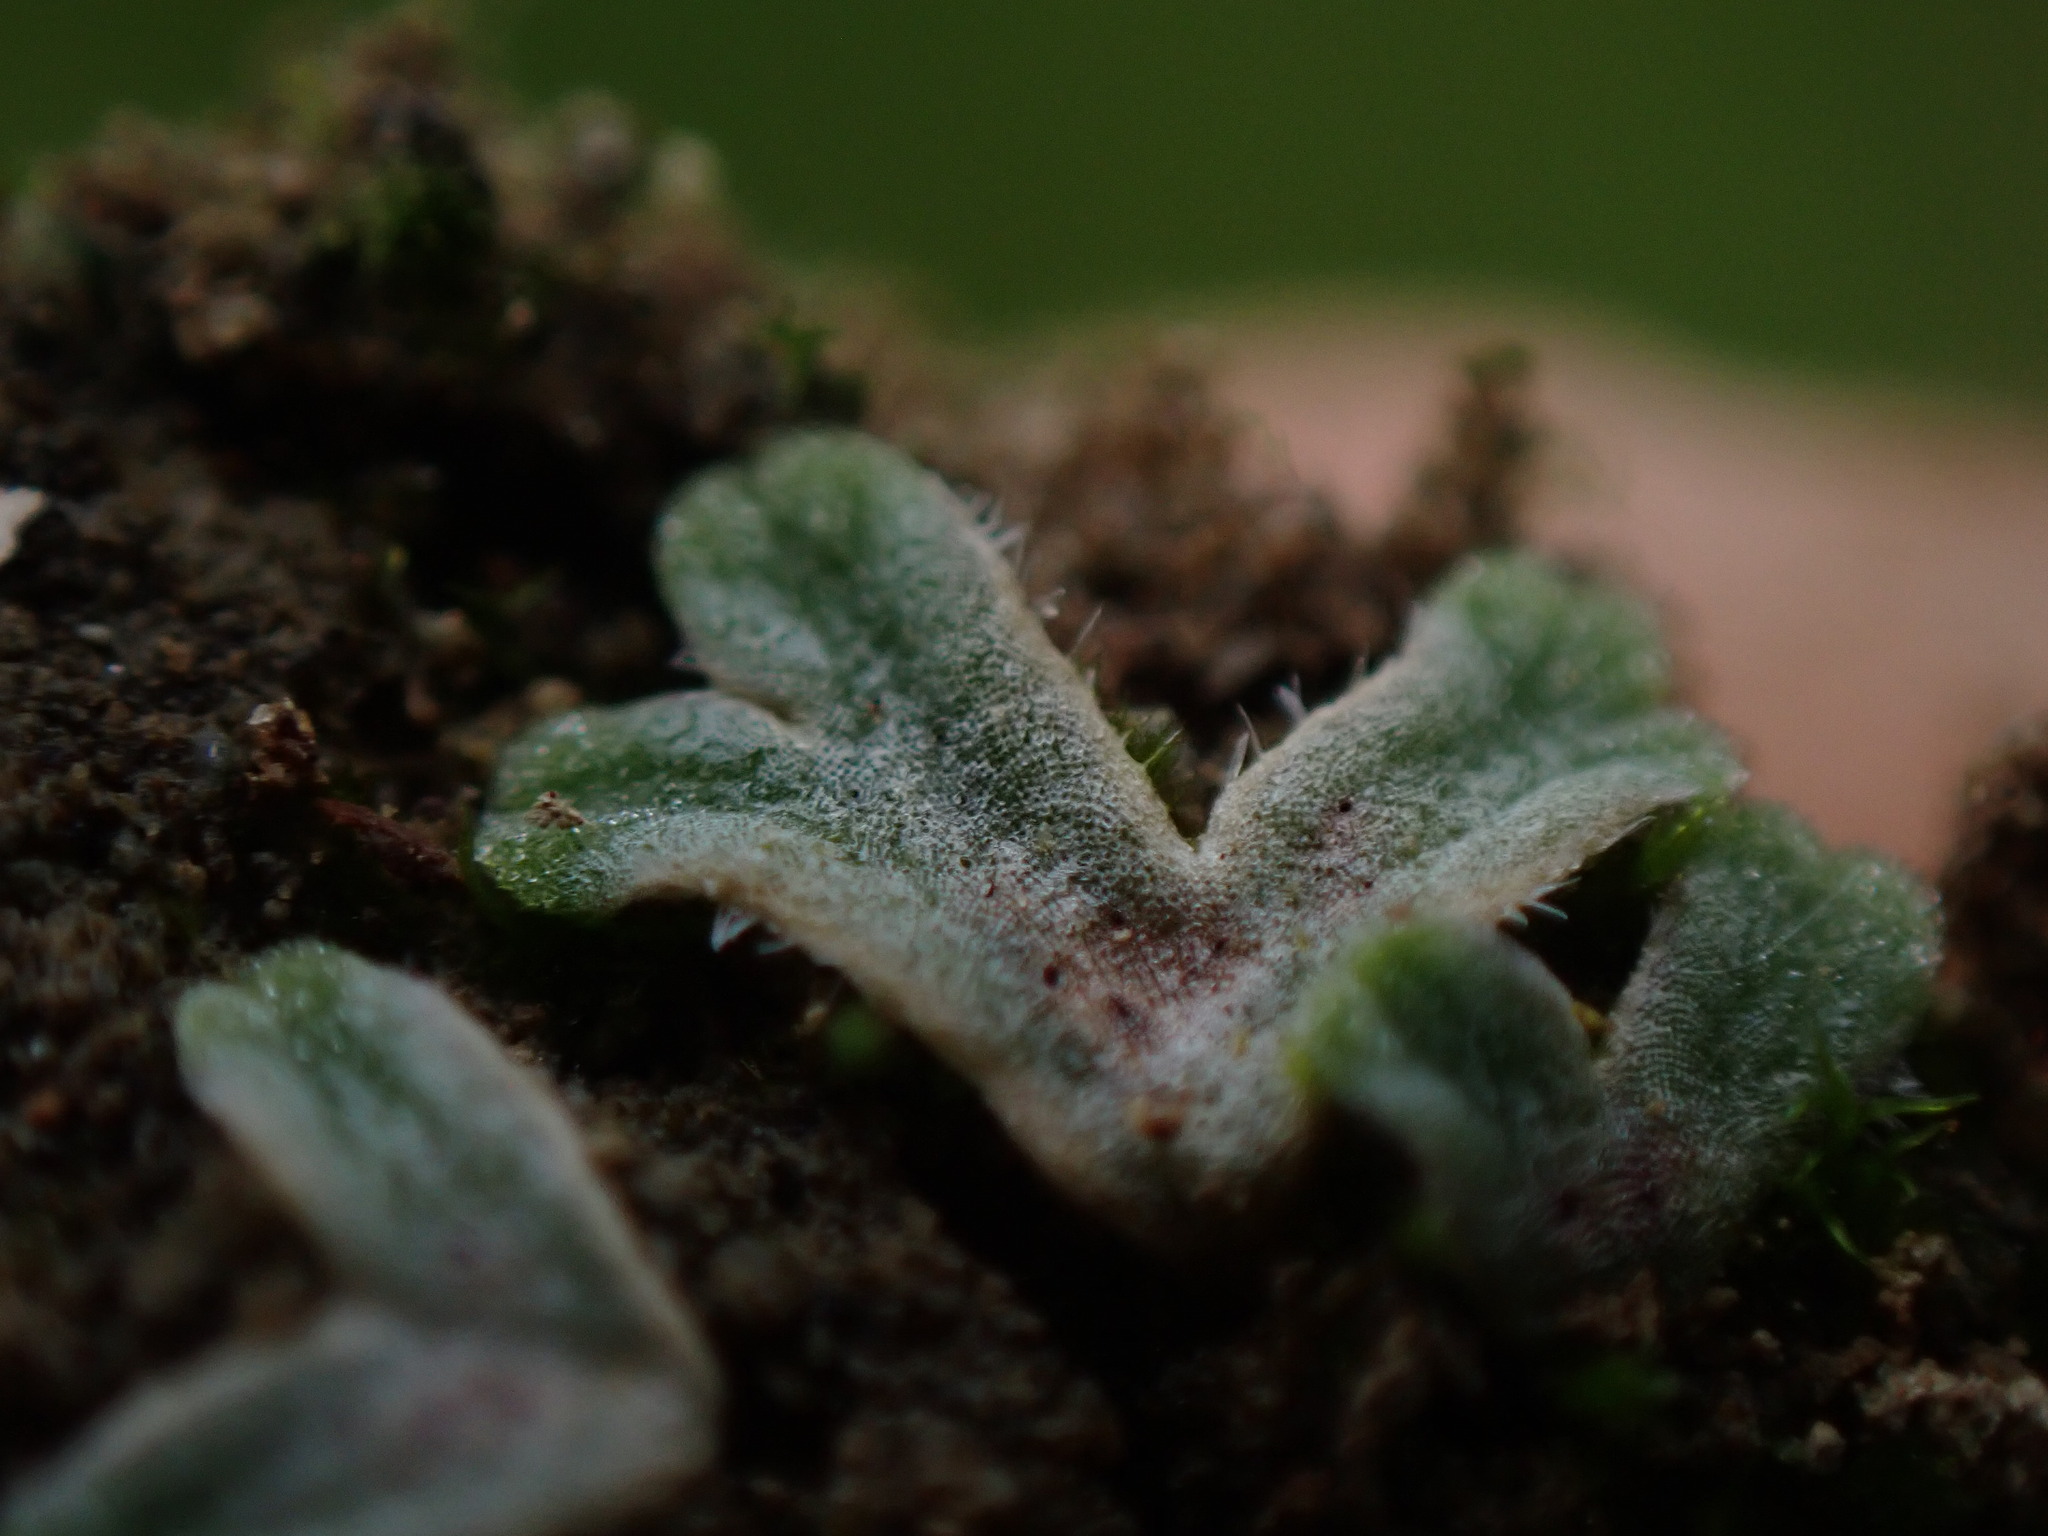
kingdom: Plantae
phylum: Marchantiophyta
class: Marchantiopsida
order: Marchantiales
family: Ricciaceae
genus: Riccia
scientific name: Riccia trichocarpa
